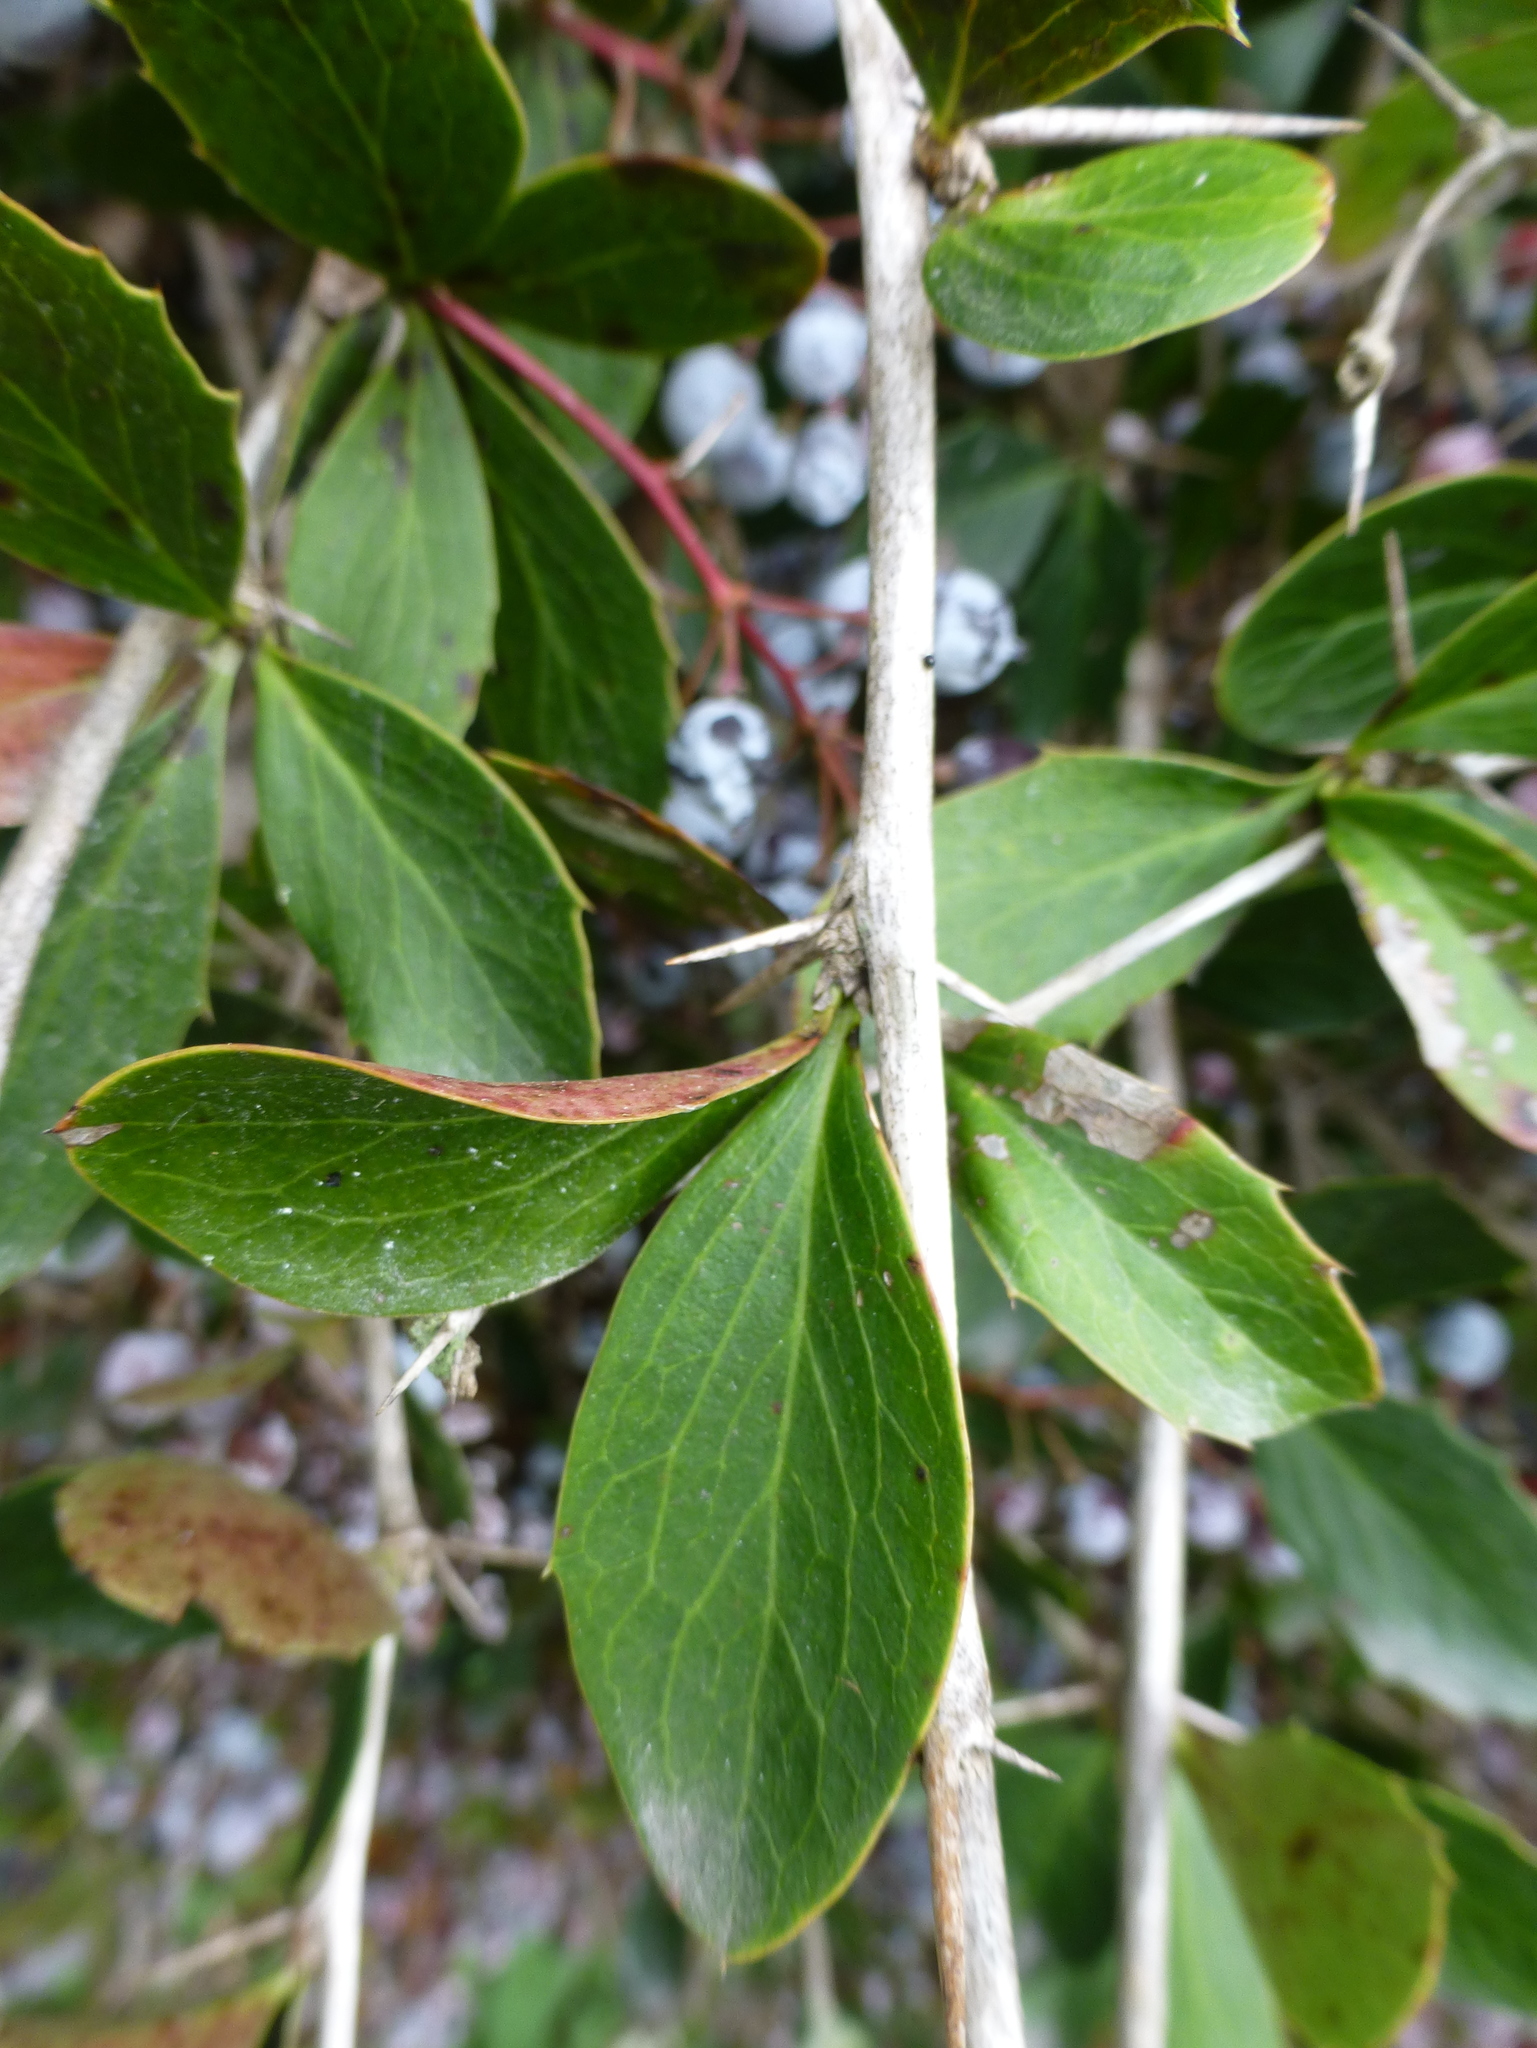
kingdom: Plantae
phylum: Tracheophyta
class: Magnoliopsida
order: Ranunculales
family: Berberidaceae
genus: Berberis
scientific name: Berberis glaucocarpa
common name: Great barberry
